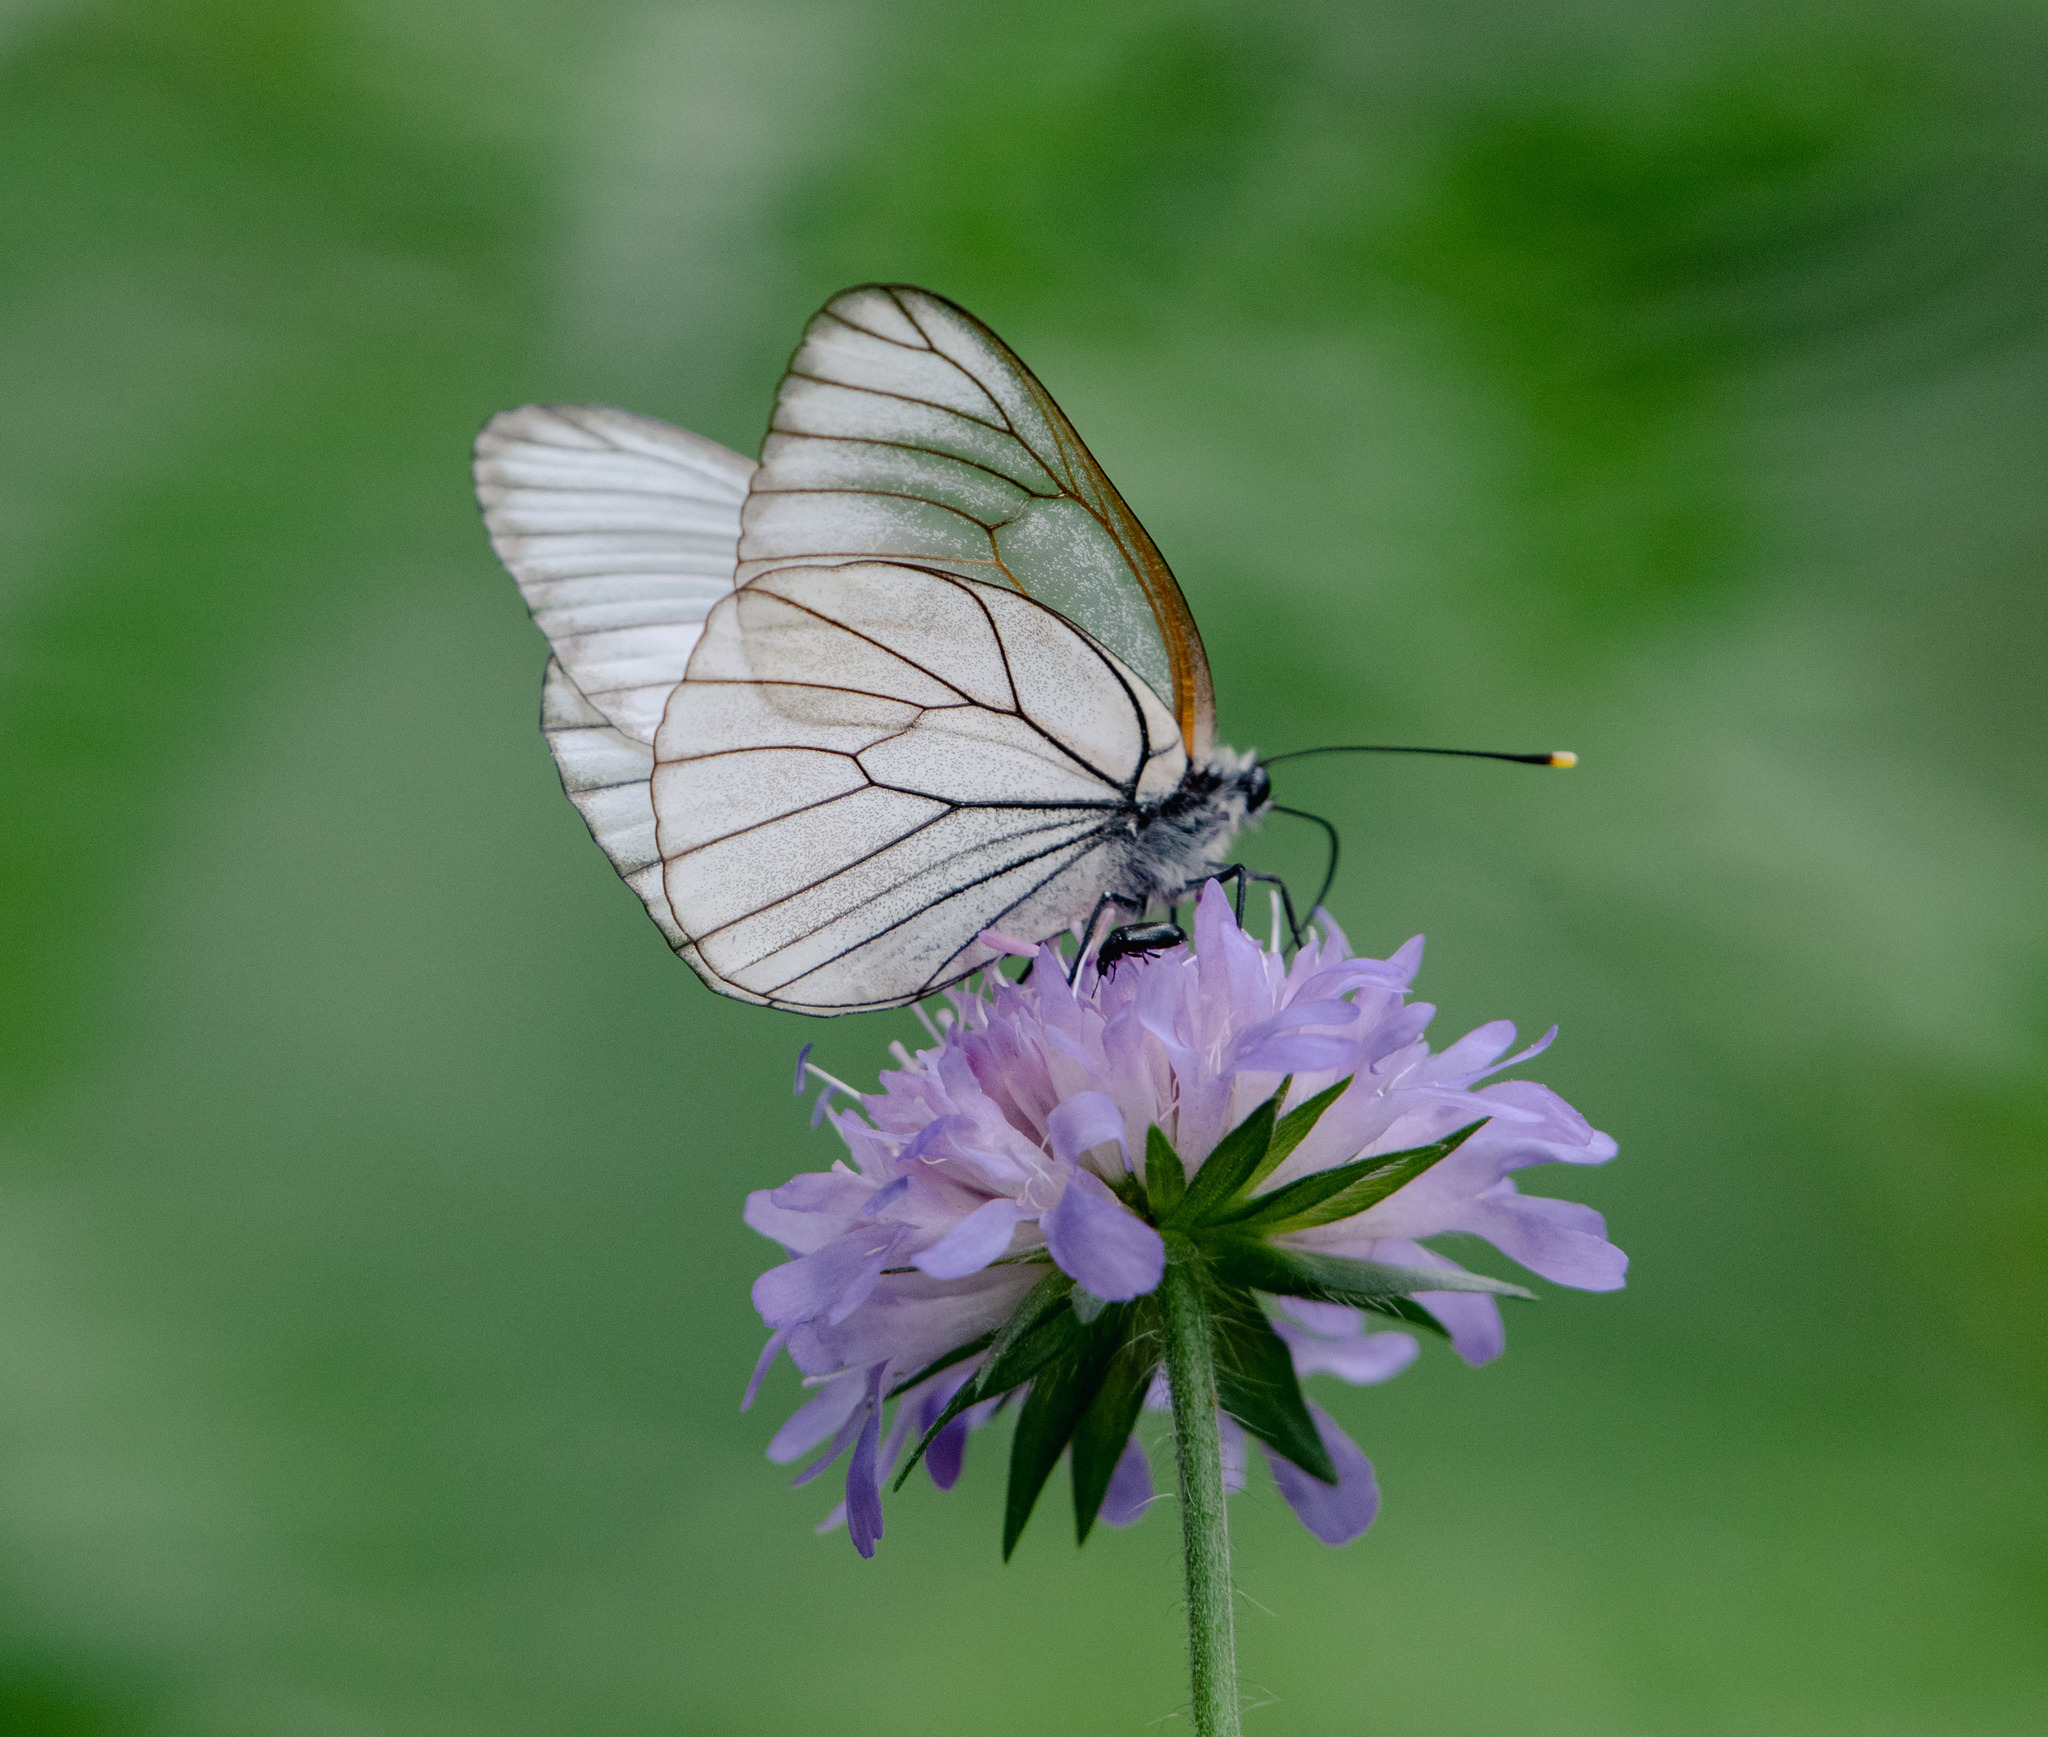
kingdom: Animalia
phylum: Arthropoda
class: Insecta
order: Lepidoptera
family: Pieridae
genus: Aporia
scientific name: Aporia crataegi
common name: Black-veined white
